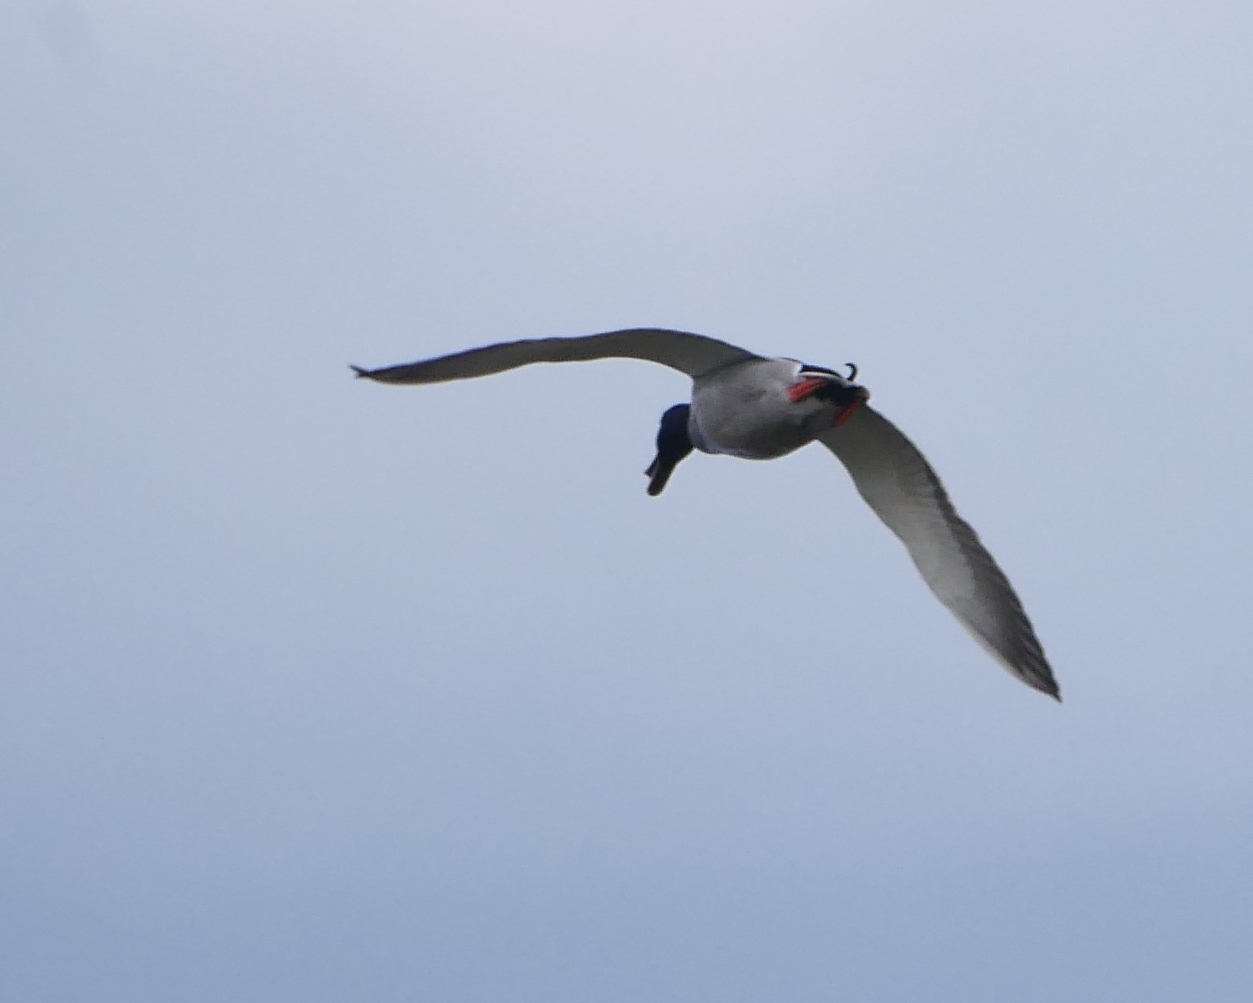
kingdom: Animalia
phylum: Chordata
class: Aves
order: Anseriformes
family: Anatidae
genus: Anas
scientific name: Anas platyrhynchos
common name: Mallard
